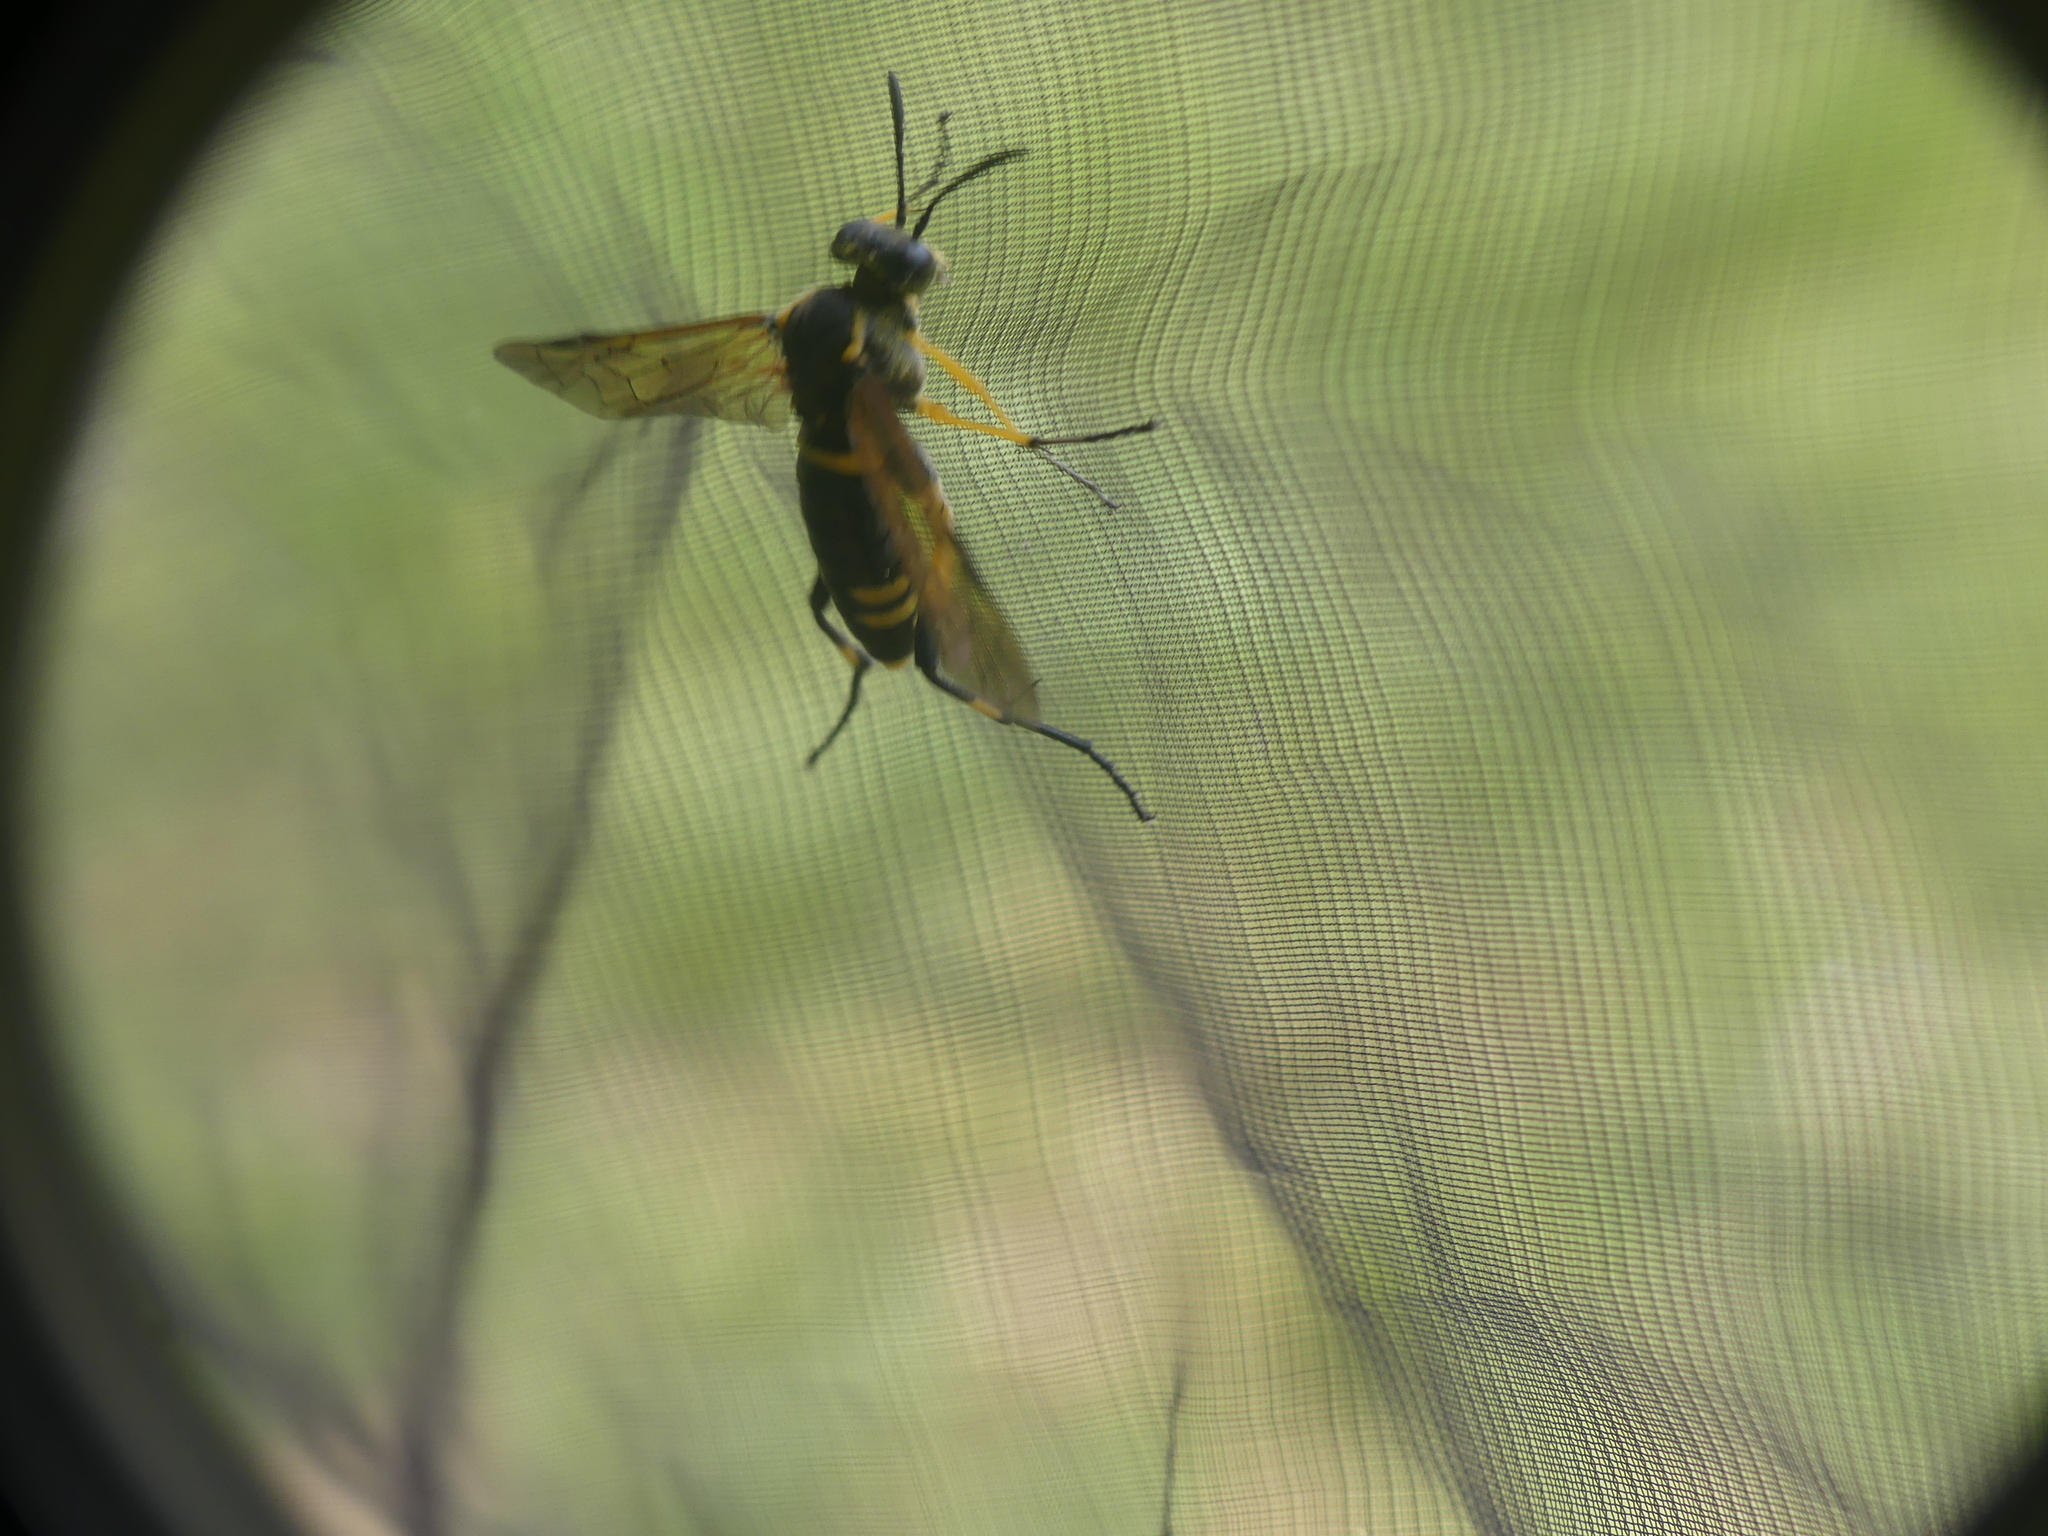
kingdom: Animalia
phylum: Arthropoda
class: Insecta
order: Hymenoptera
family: Tenthredinidae
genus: Macrophya
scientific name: Macrophya montana
